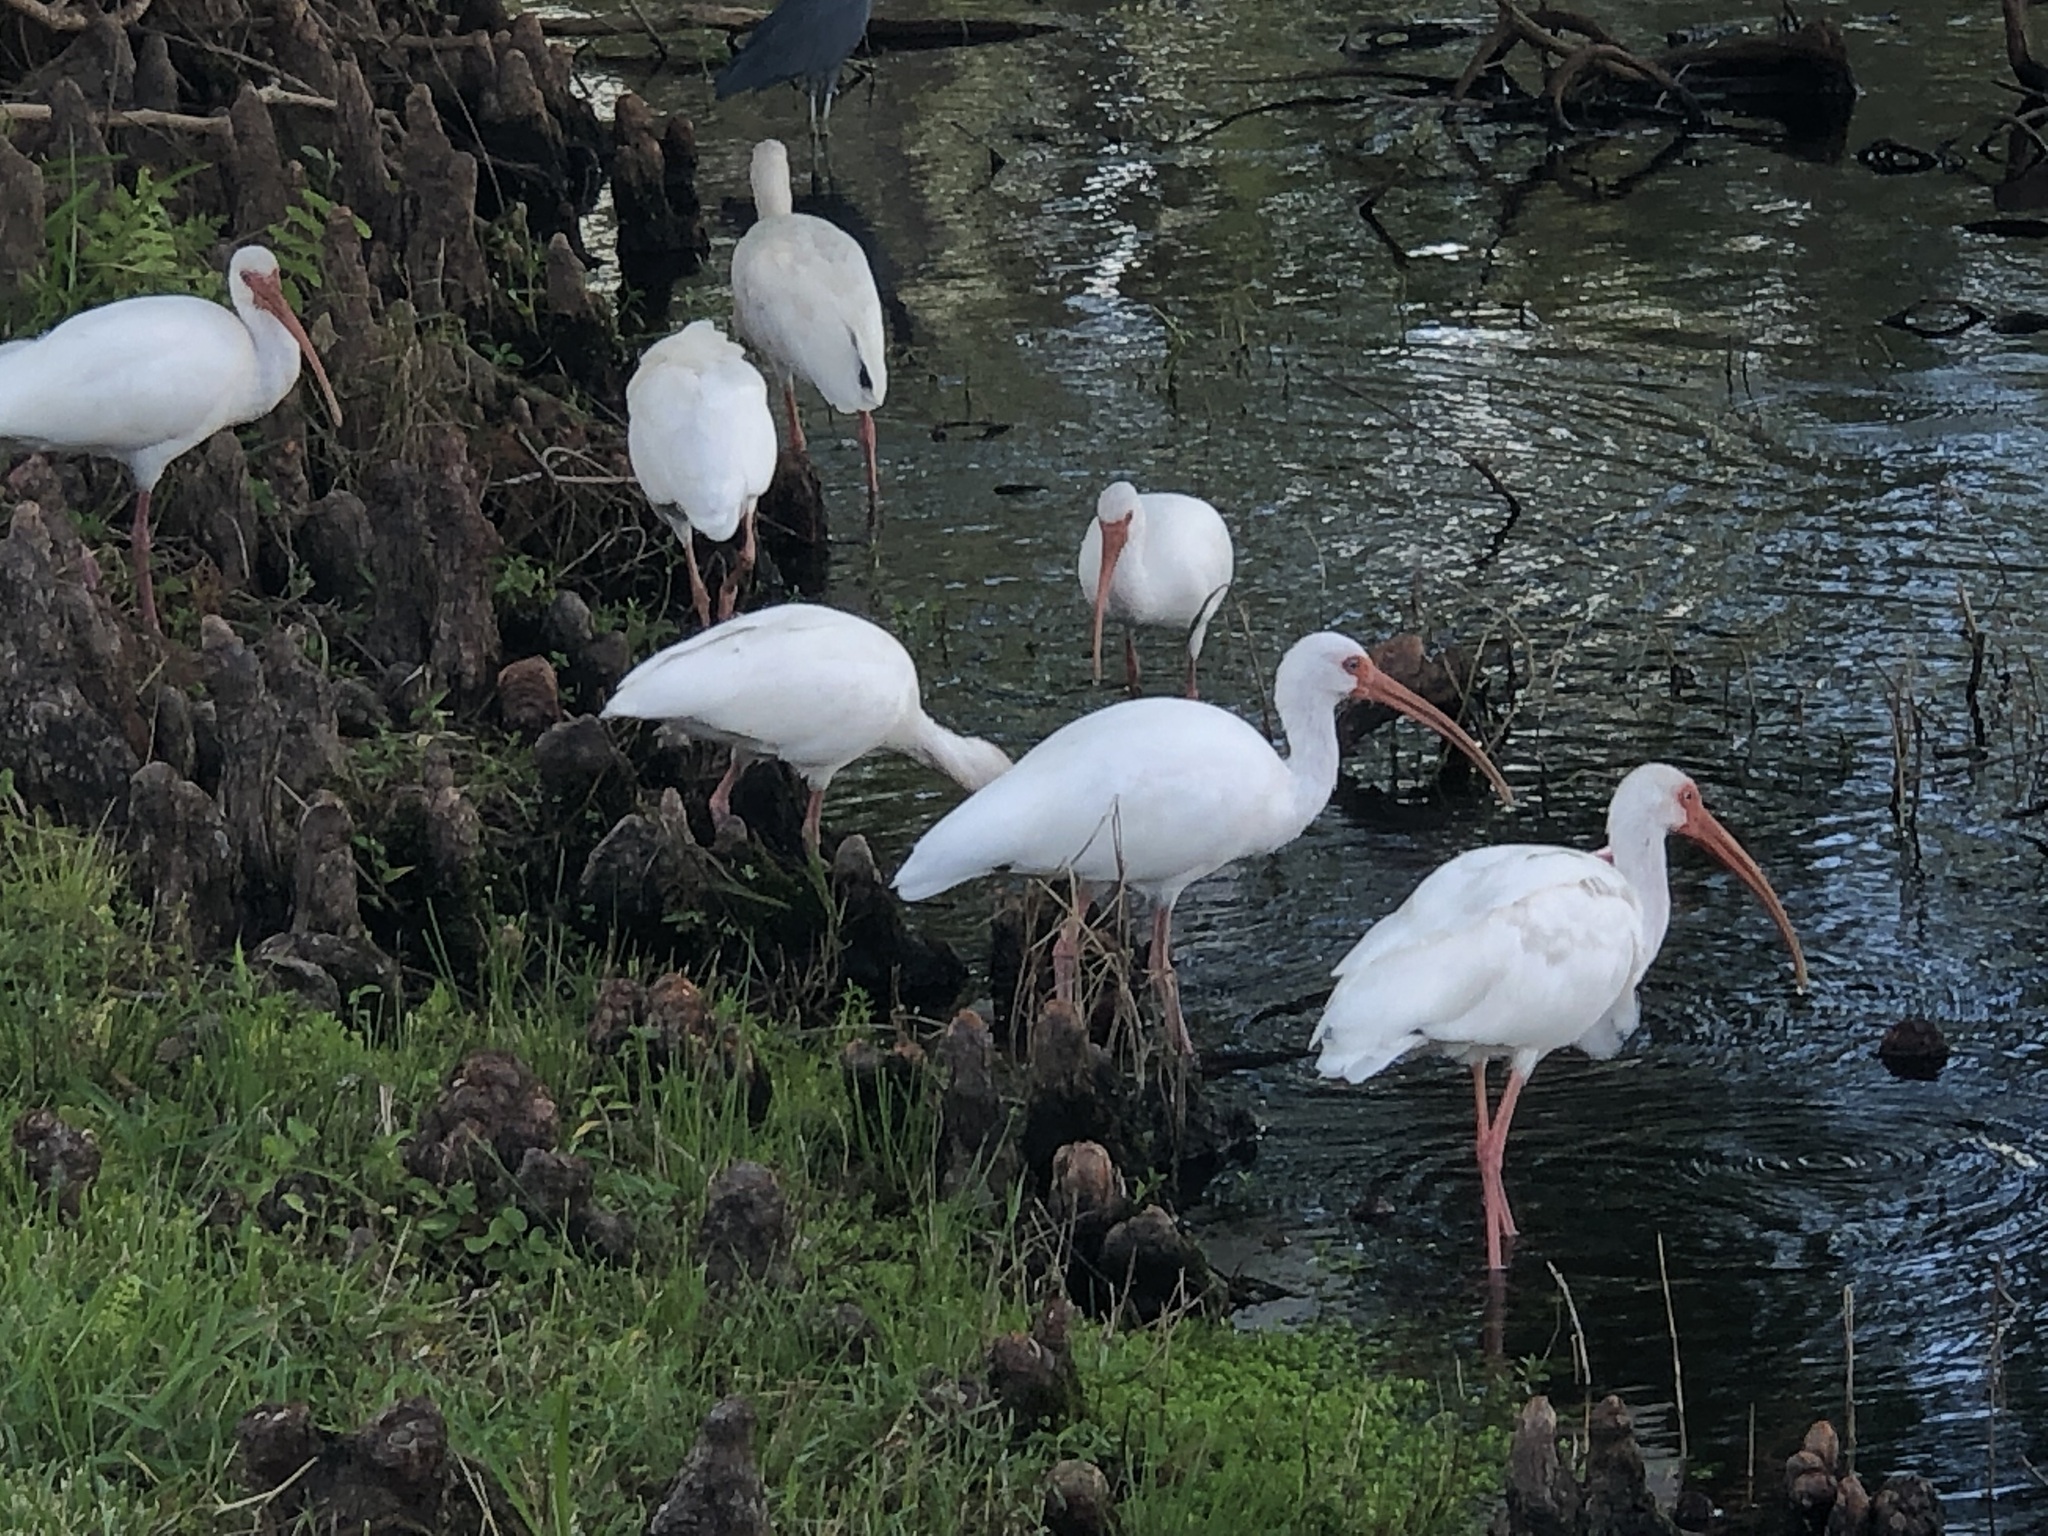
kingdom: Animalia
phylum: Chordata
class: Aves
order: Pelecaniformes
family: Threskiornithidae
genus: Eudocimus
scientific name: Eudocimus albus
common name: White ibis
